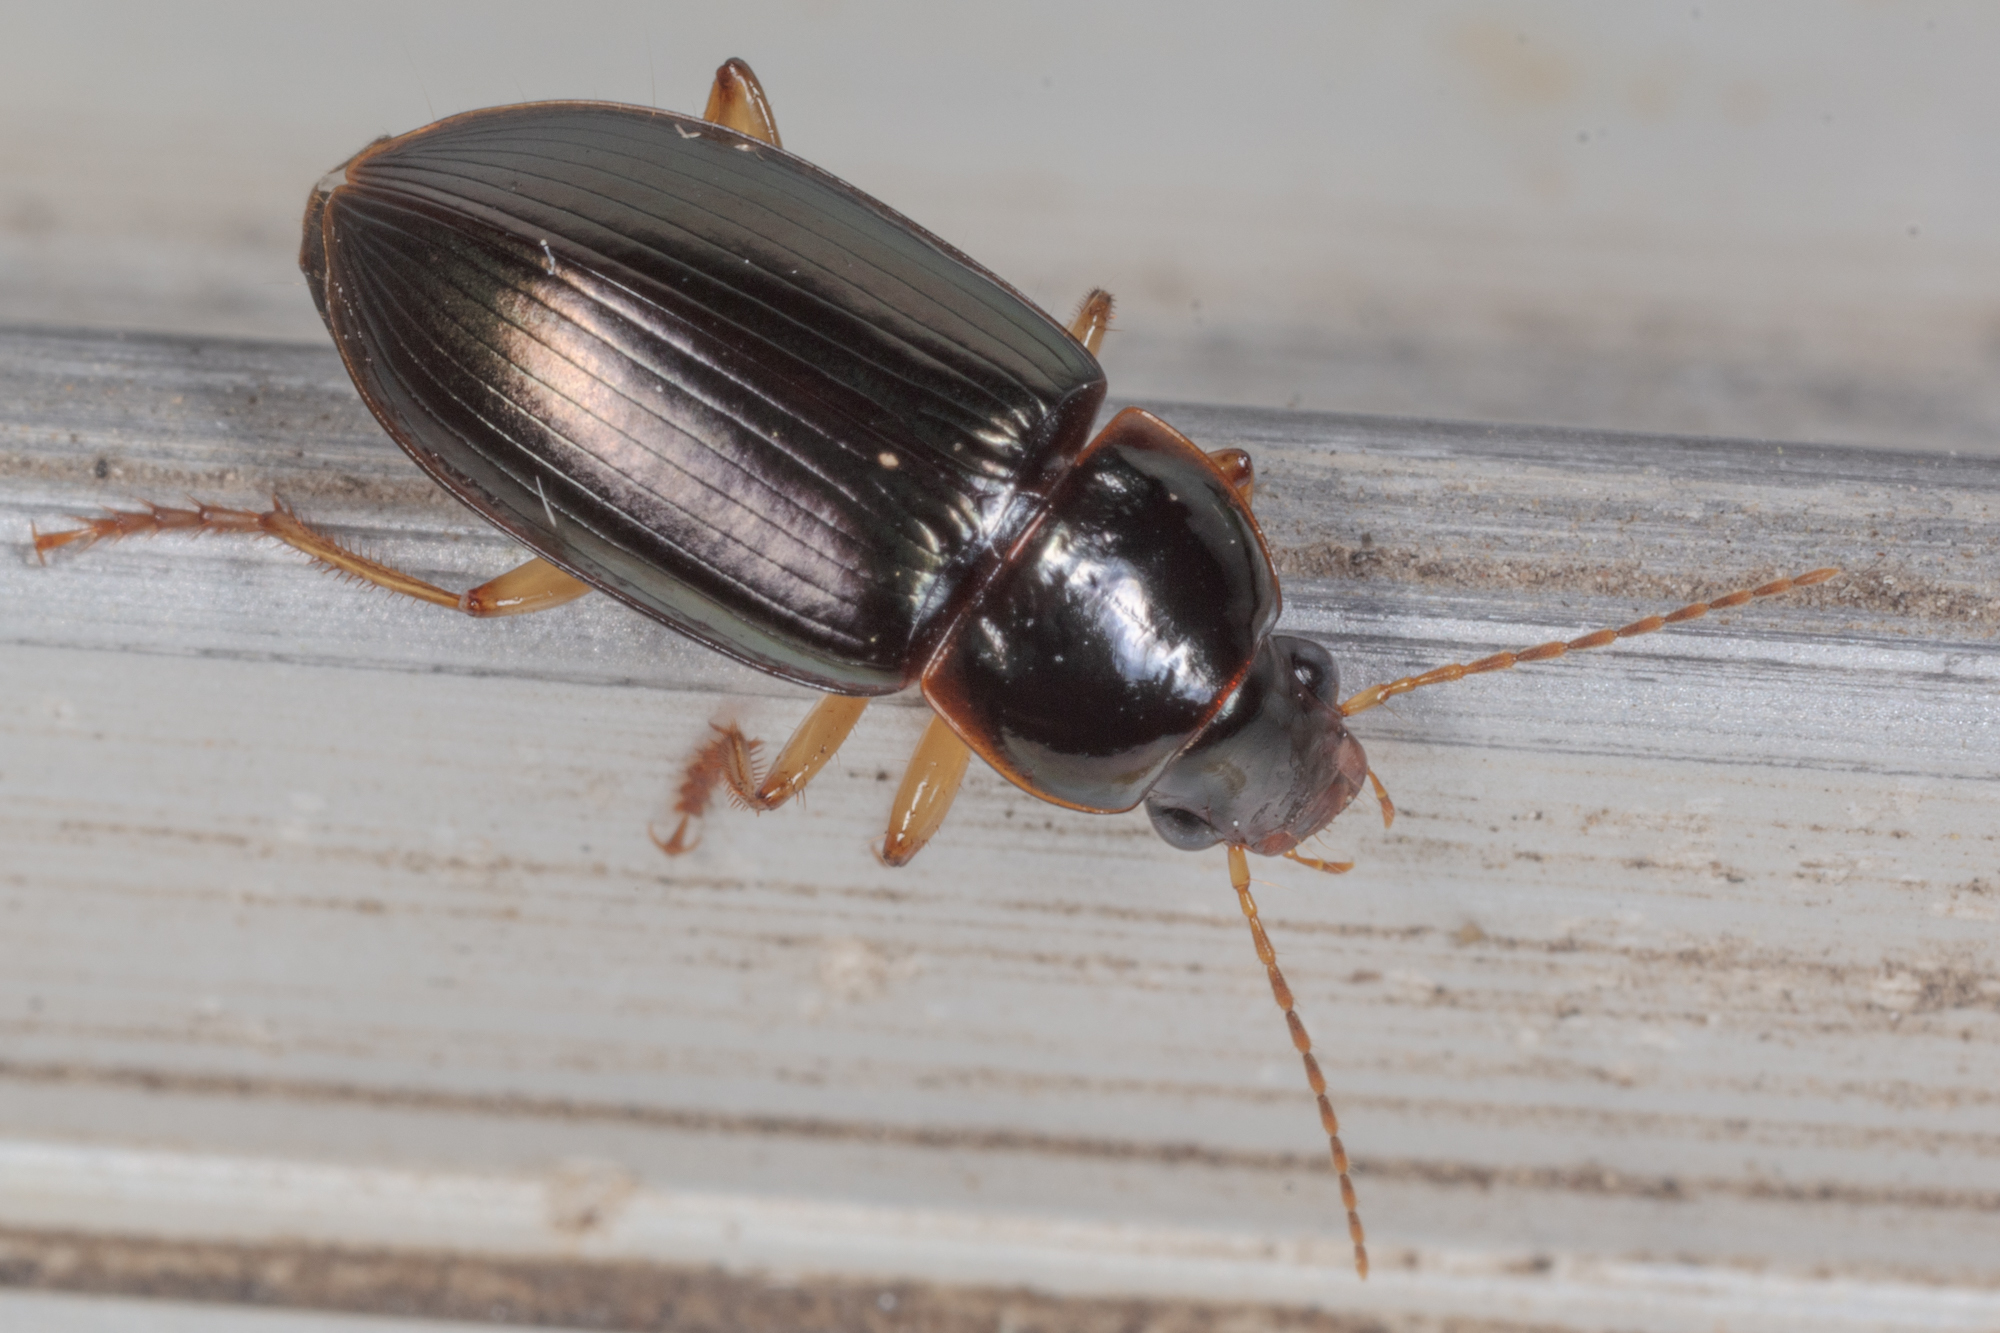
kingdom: Animalia
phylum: Arthropoda
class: Insecta
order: Coleoptera
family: Carabidae
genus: Notiobia
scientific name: Notiobia terminata
